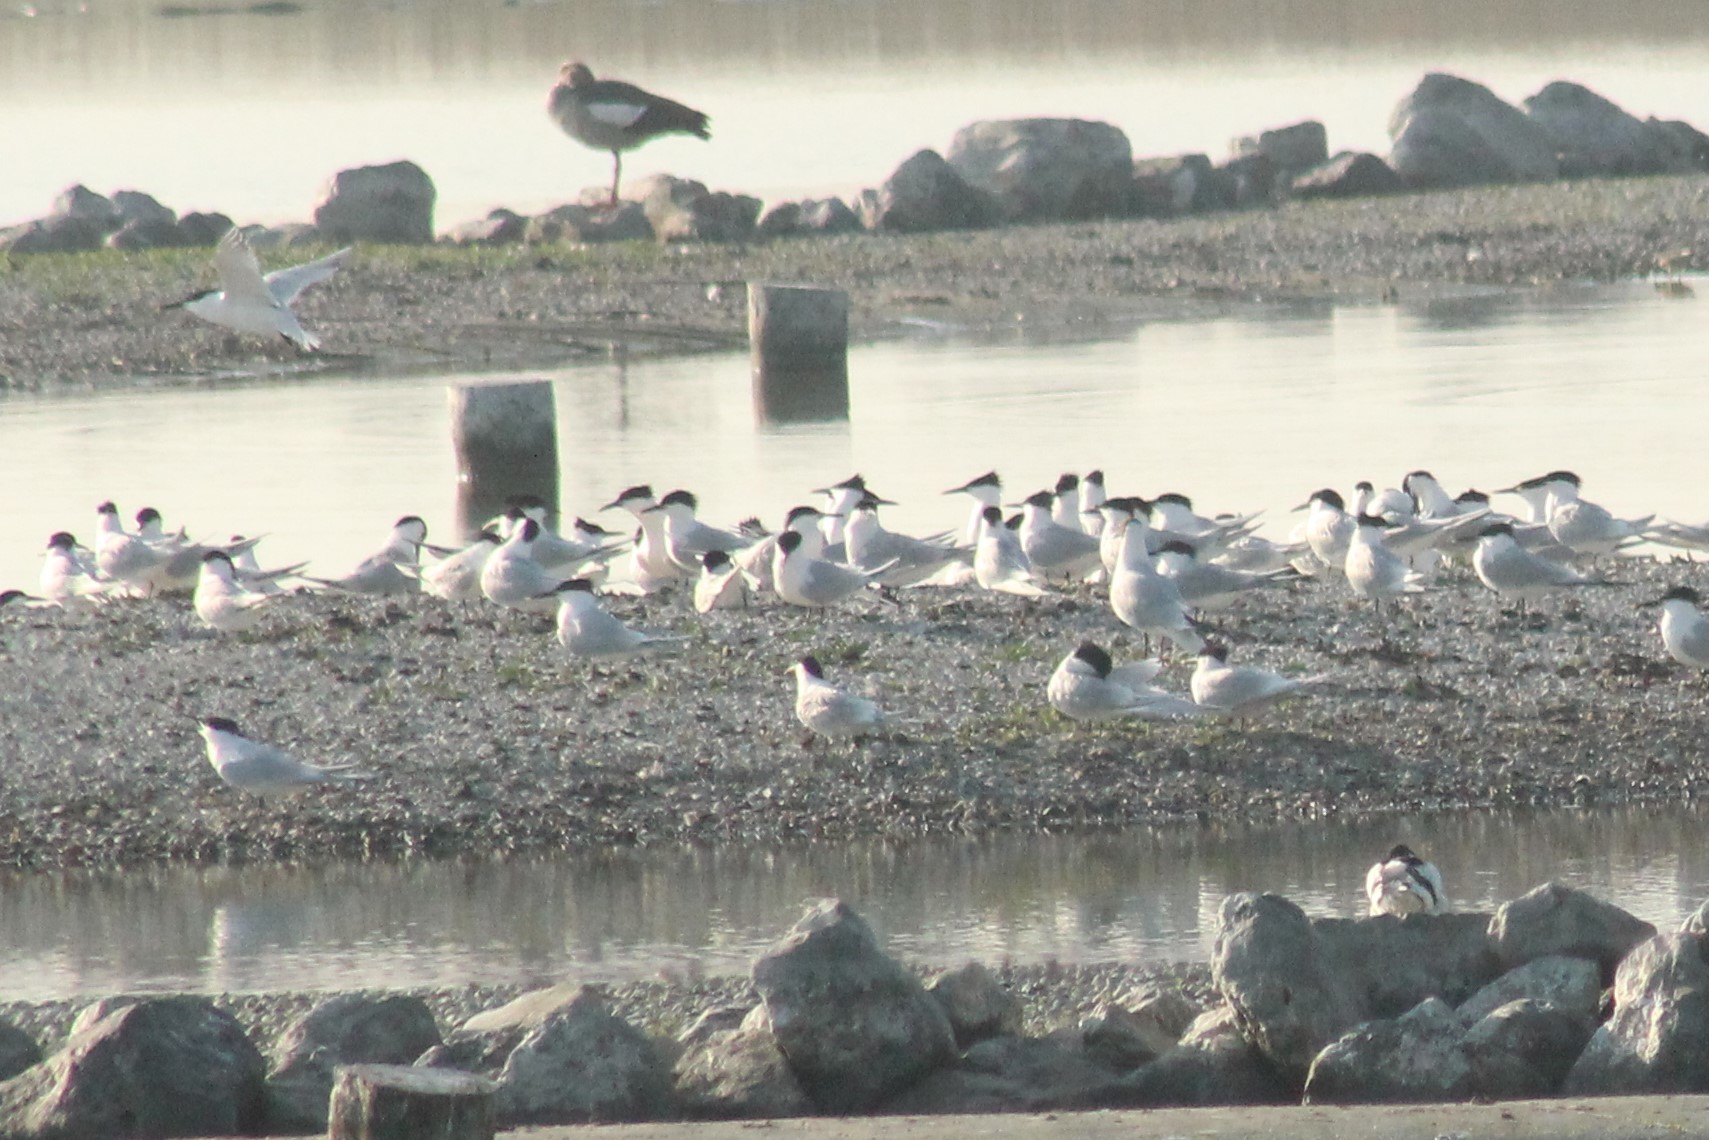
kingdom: Animalia
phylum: Chordata
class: Aves
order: Charadriiformes
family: Laridae
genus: Thalasseus
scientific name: Thalasseus sandvicensis
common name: Sandwich tern
